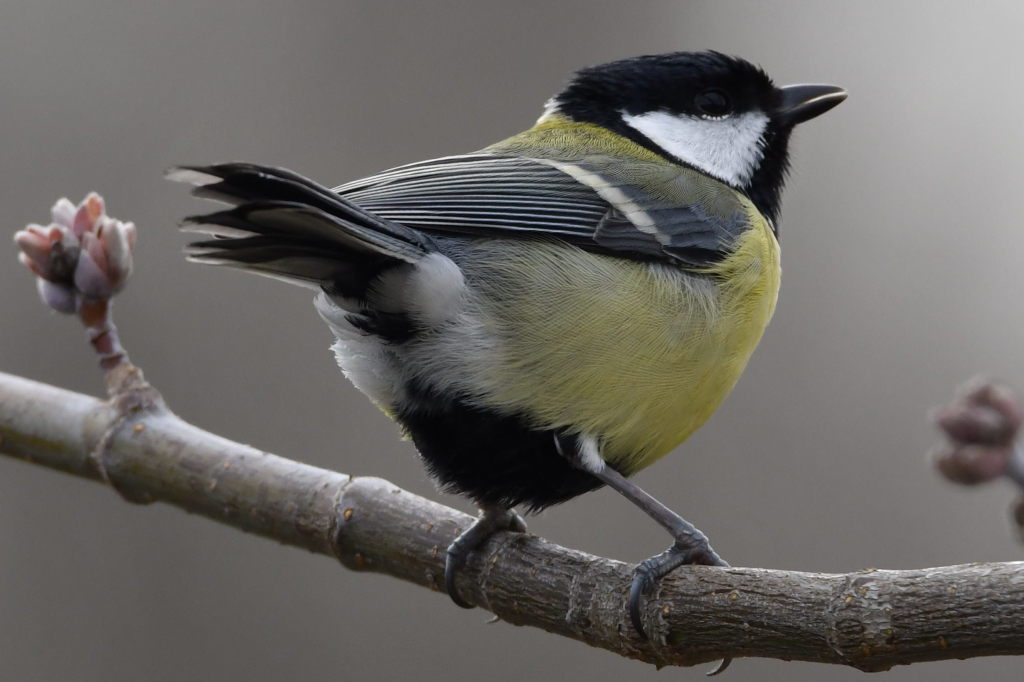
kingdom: Animalia
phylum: Chordata
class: Aves
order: Passeriformes
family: Paridae
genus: Parus
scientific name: Parus major
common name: Great tit
